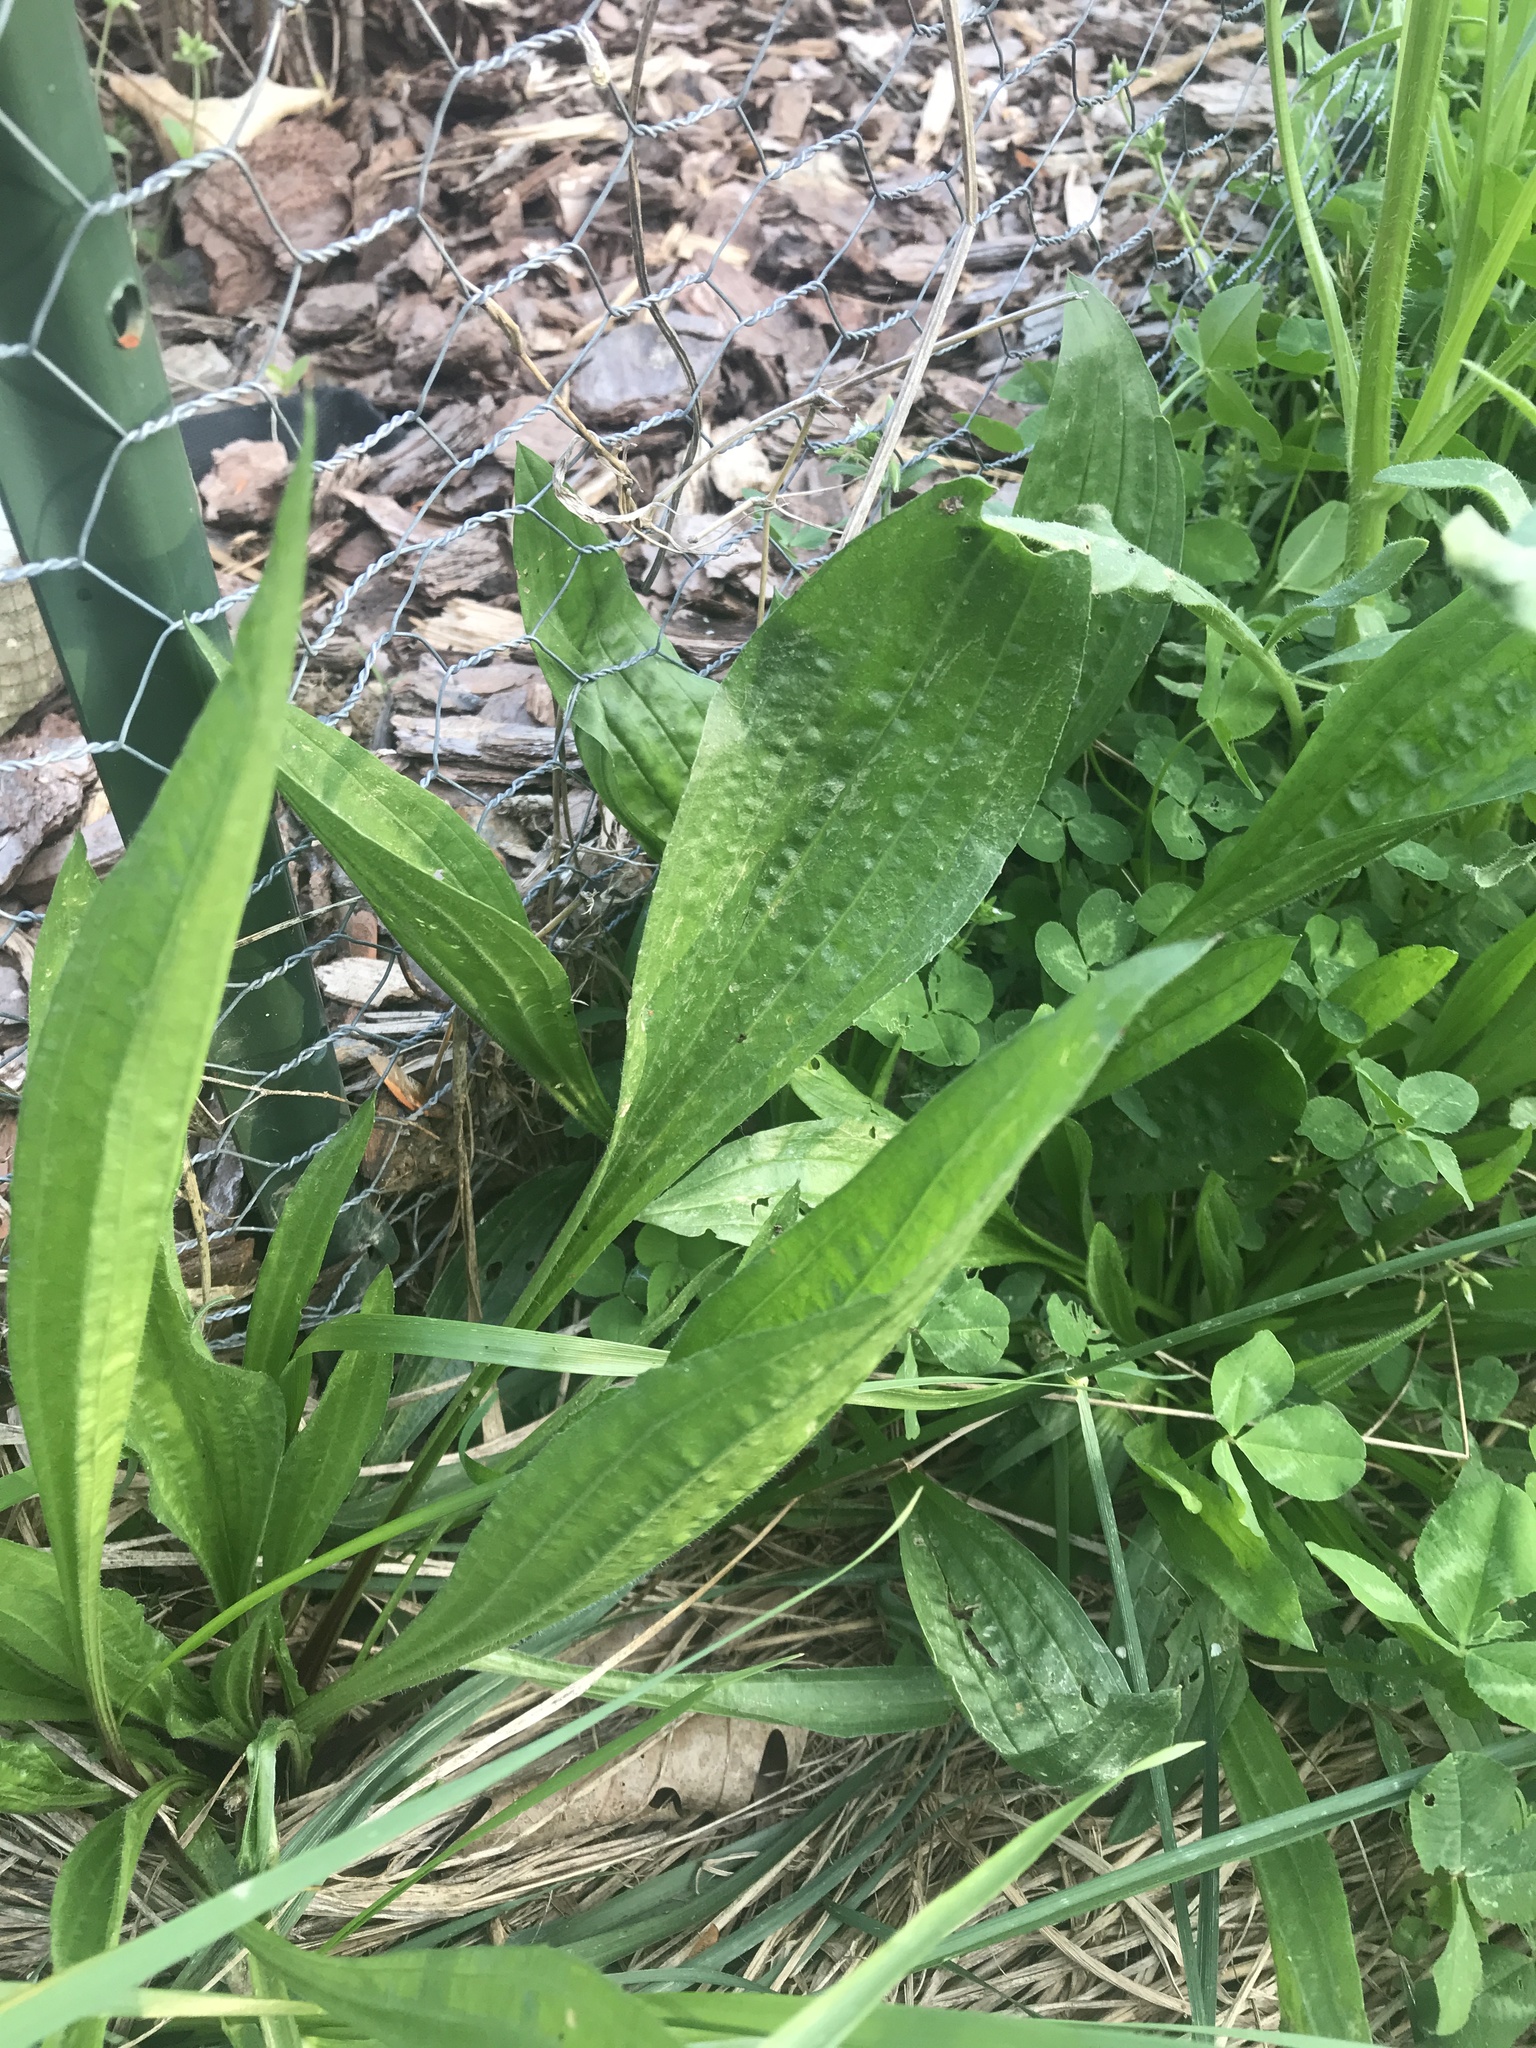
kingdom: Plantae
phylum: Tracheophyta
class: Magnoliopsida
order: Lamiales
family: Plantaginaceae
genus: Plantago
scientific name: Plantago lanceolata
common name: Ribwort plantain
